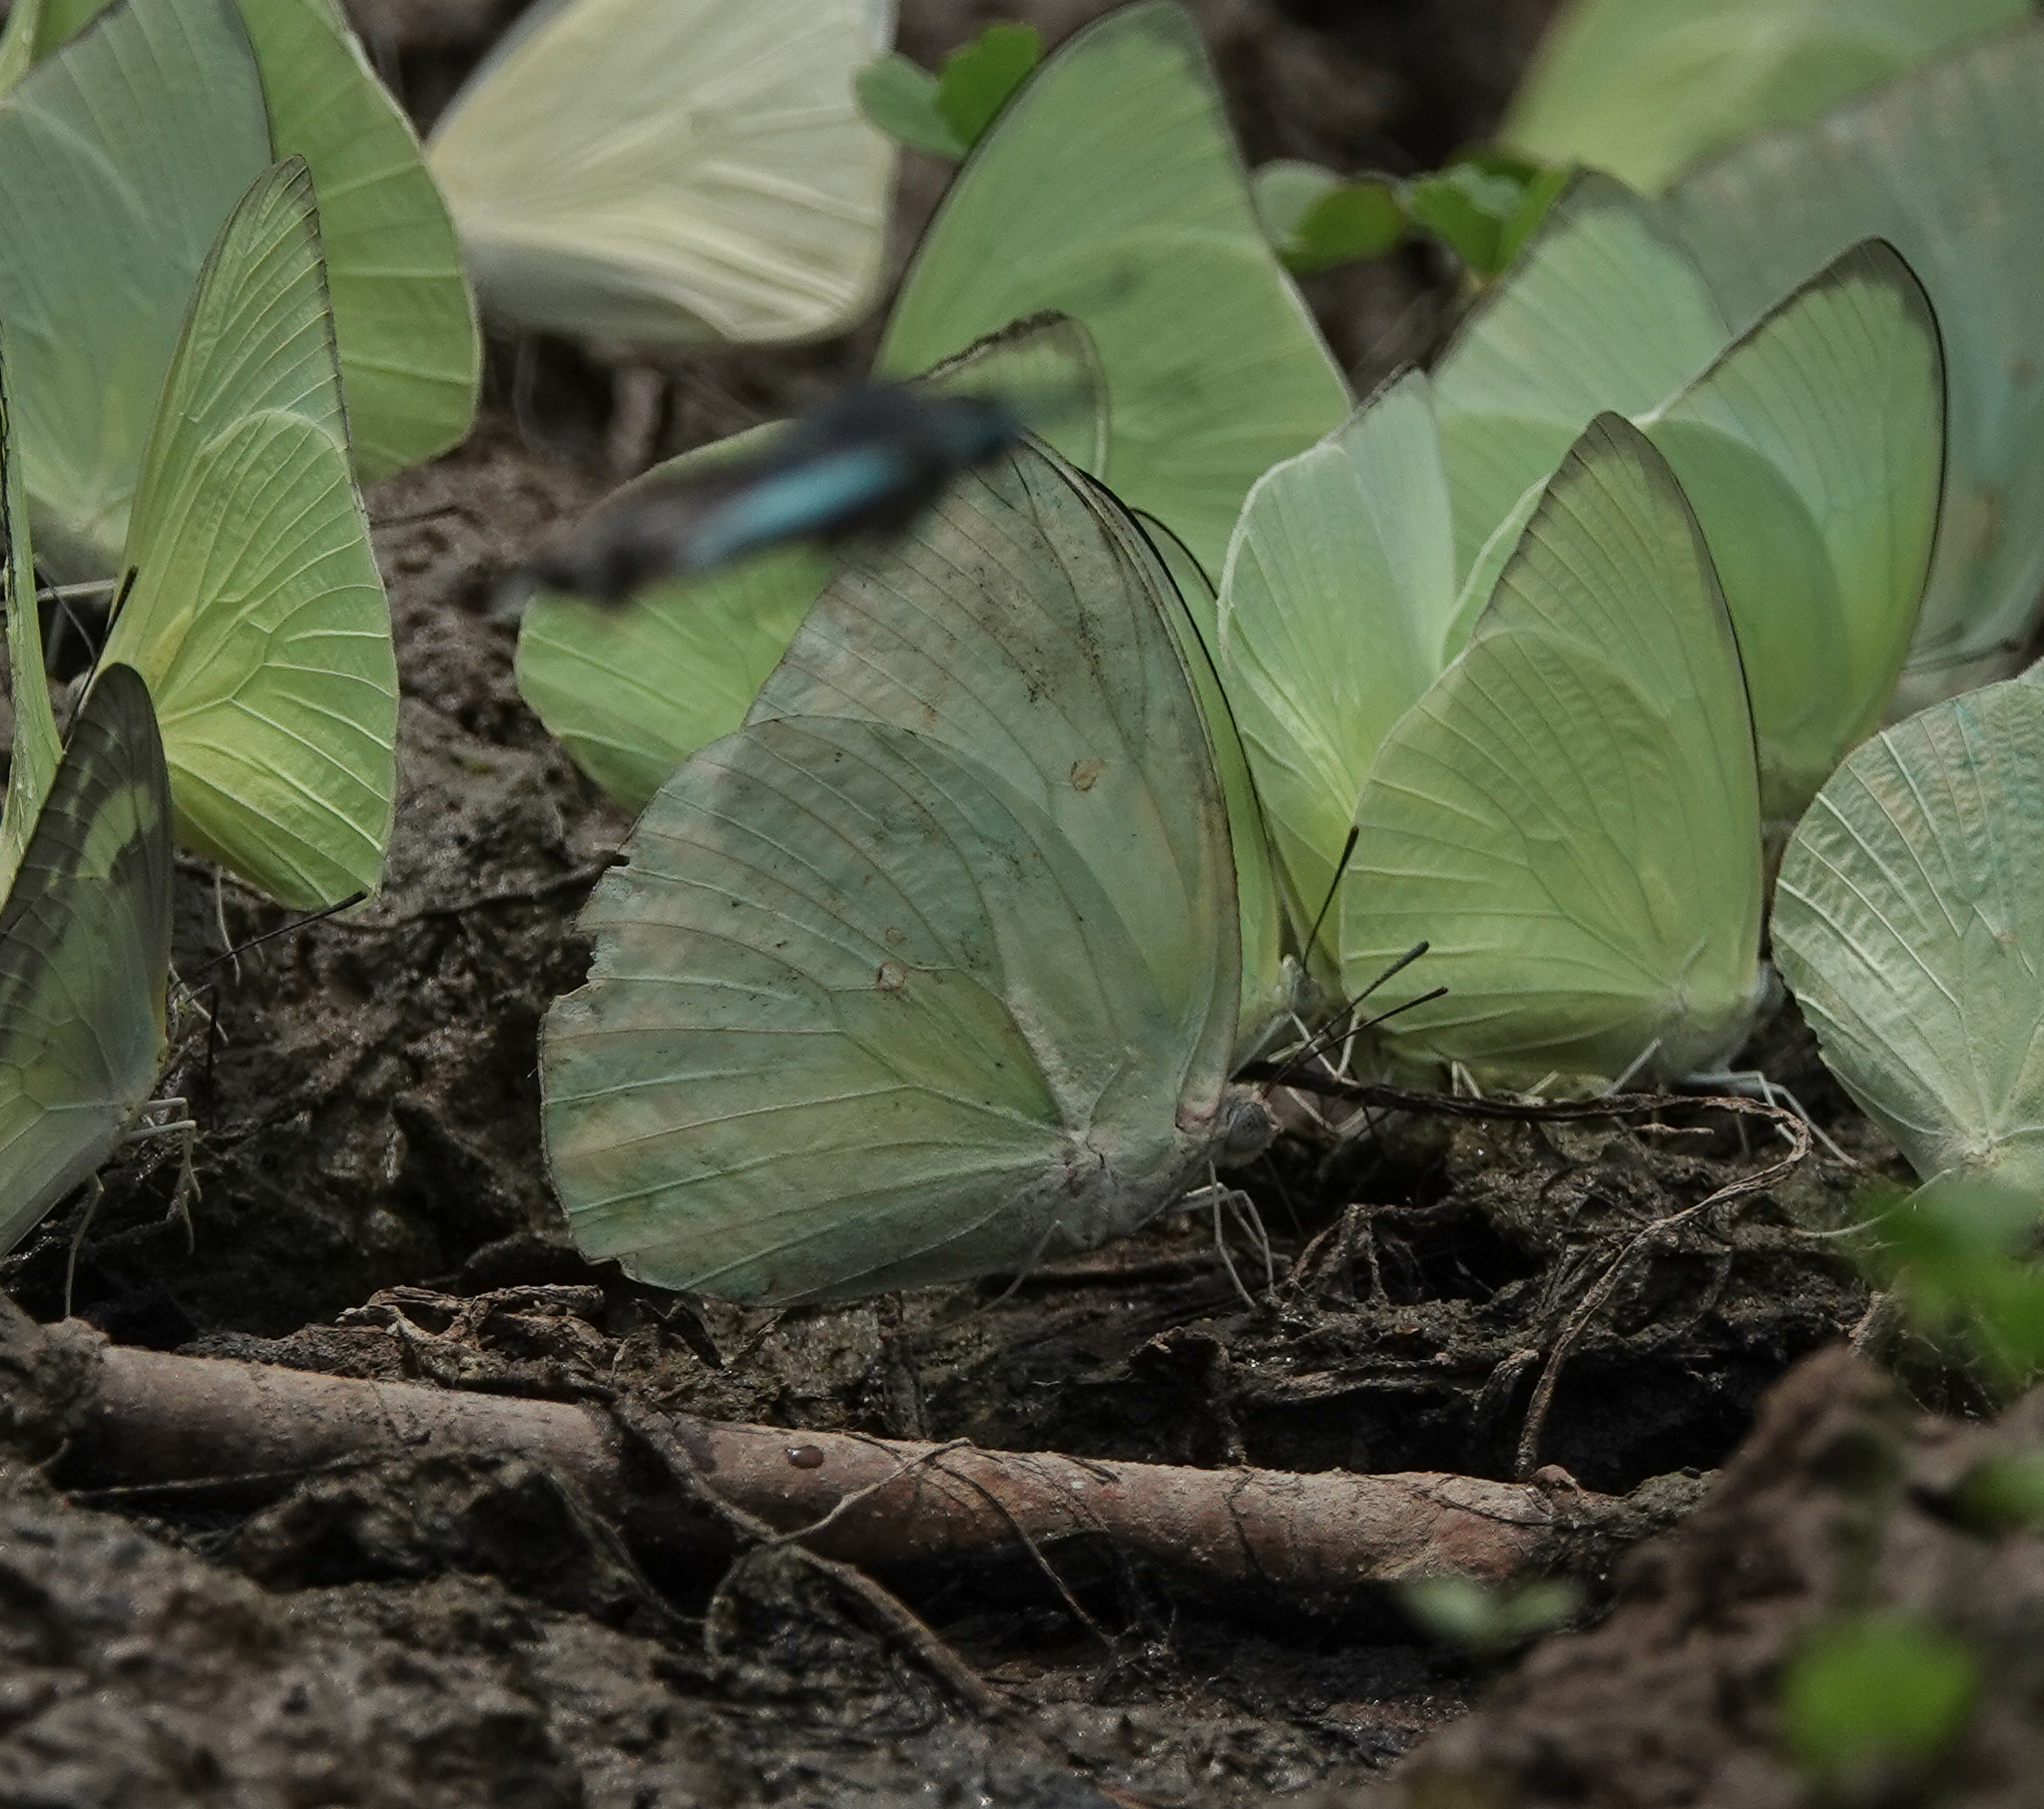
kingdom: Animalia
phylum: Arthropoda
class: Insecta
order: Lepidoptera
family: Pieridae
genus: Catopsilia
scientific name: Catopsilia pomona
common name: Common emigrant
